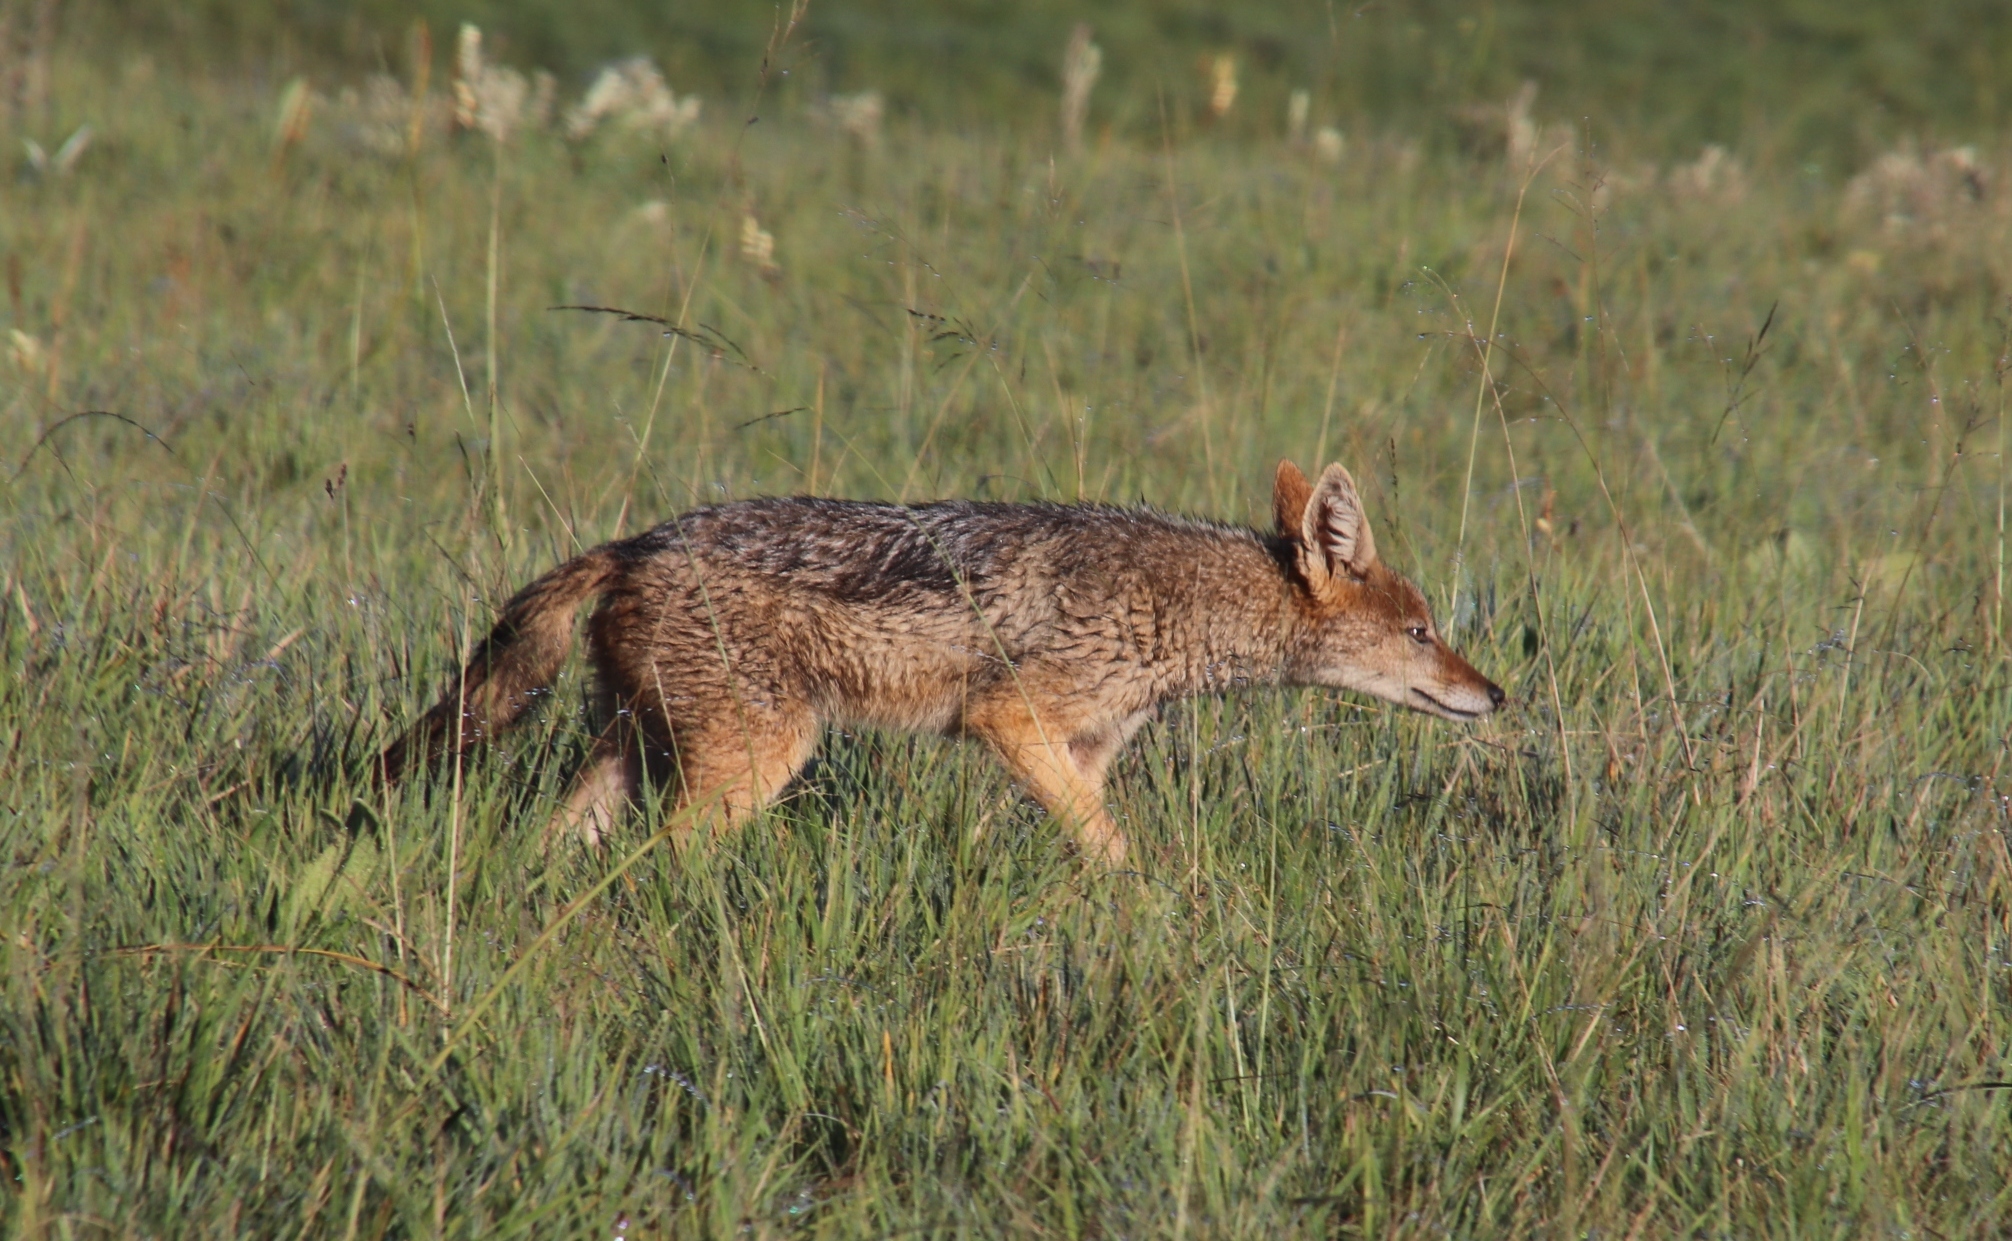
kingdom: Animalia
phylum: Chordata
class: Mammalia
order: Carnivora
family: Canidae
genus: Lupulella
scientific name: Lupulella
